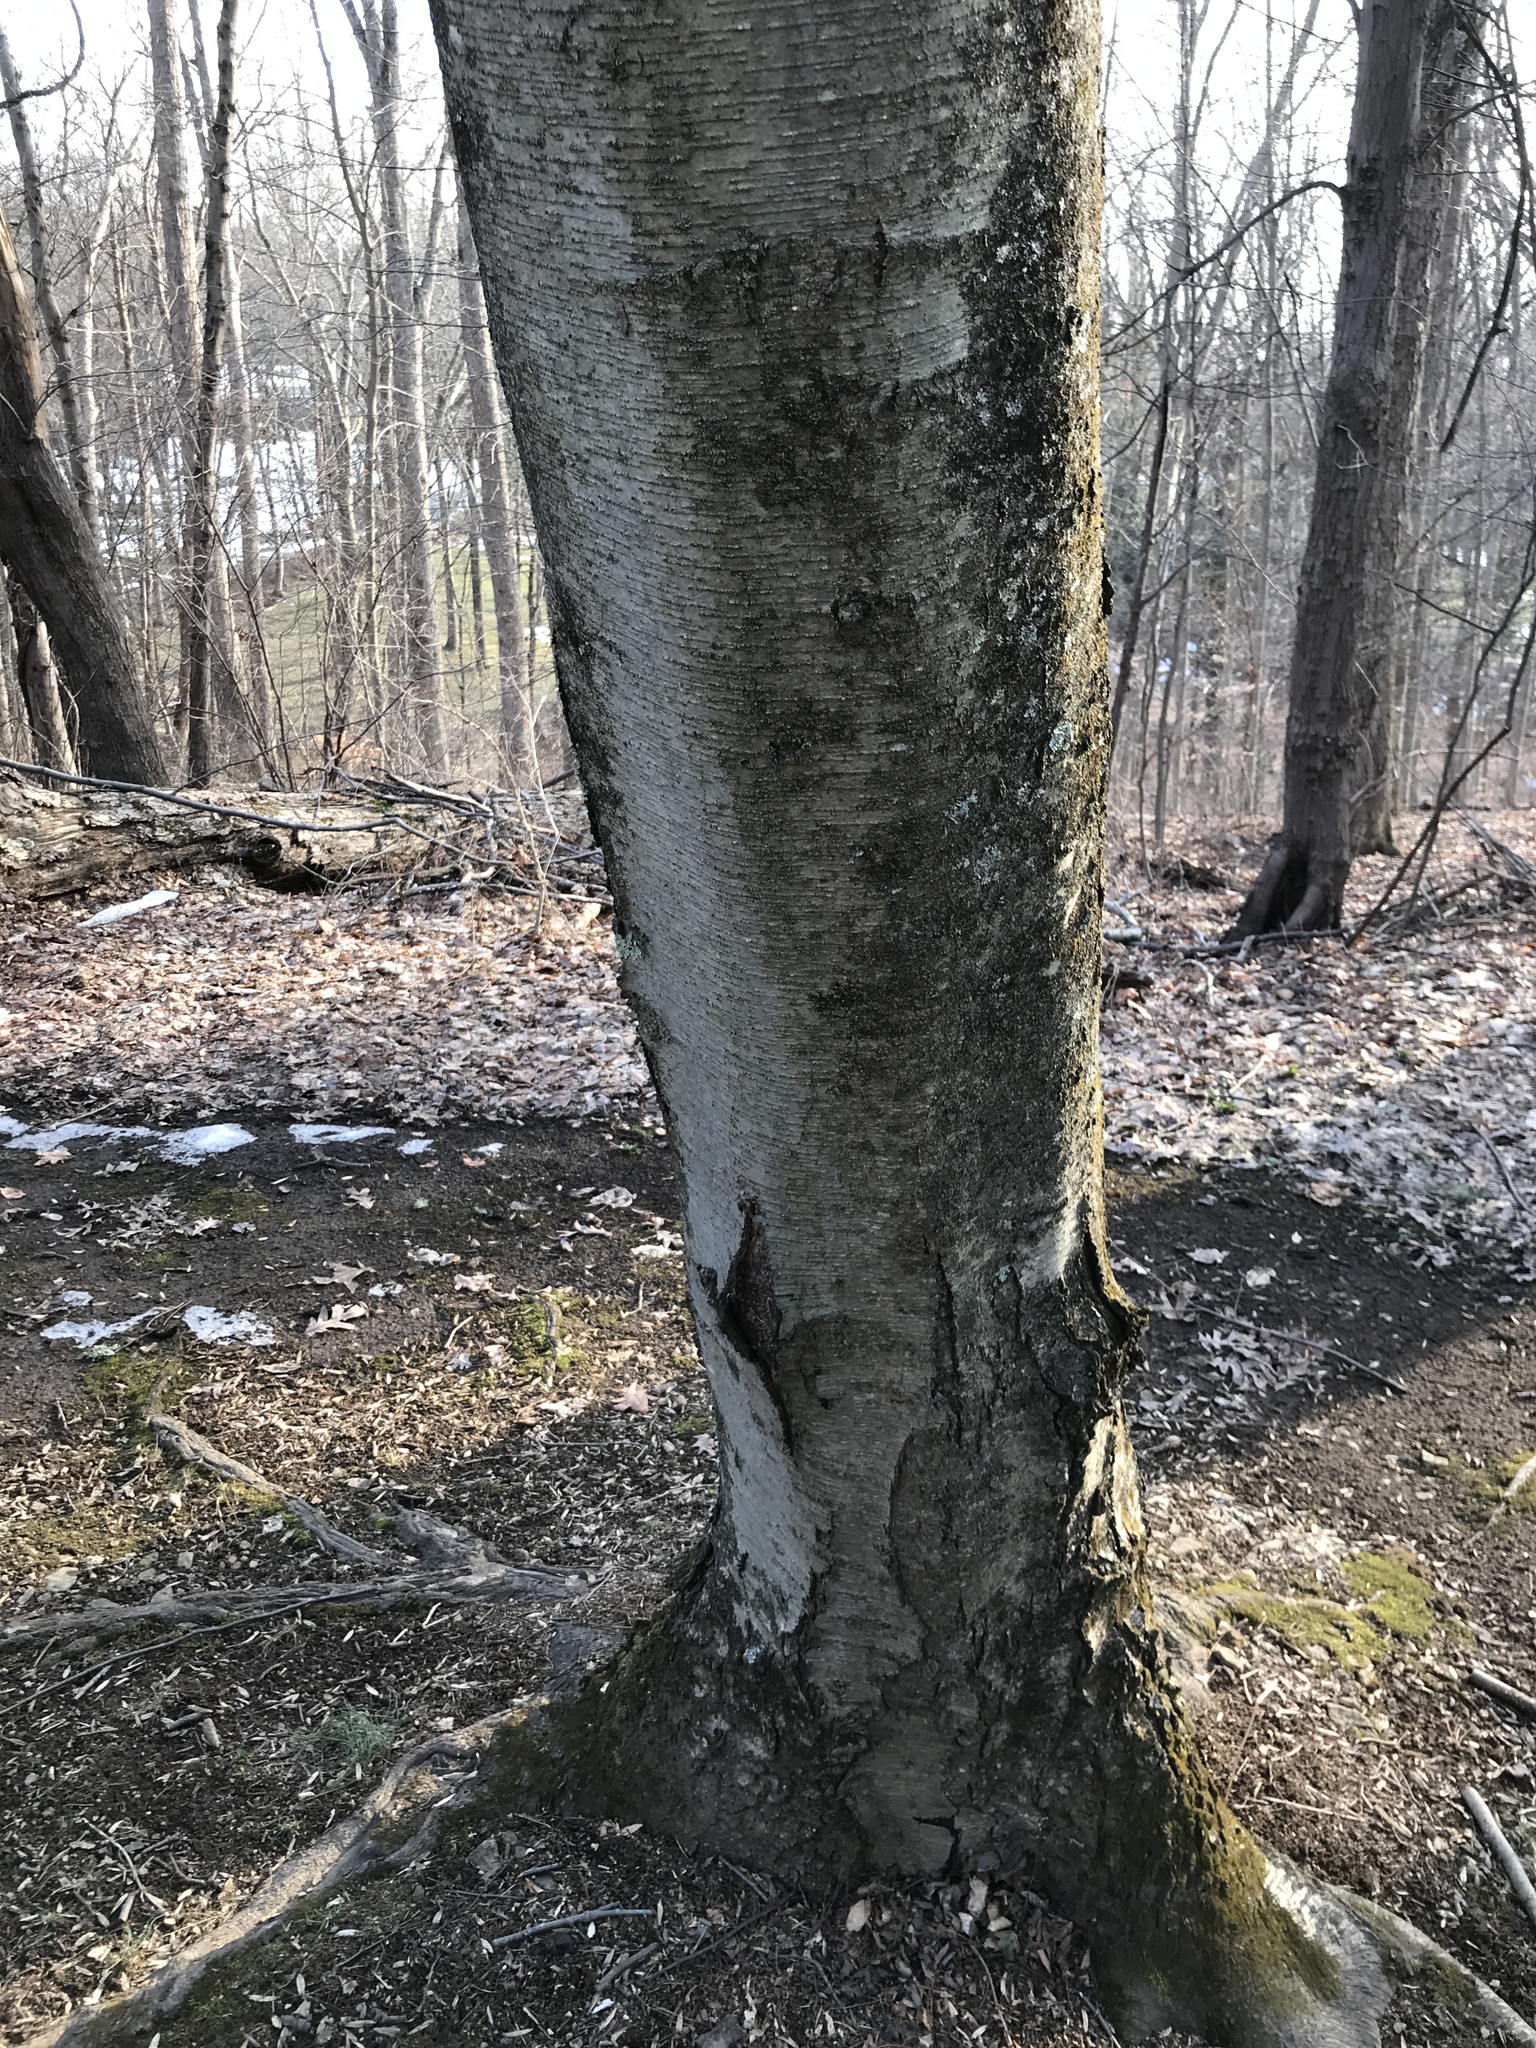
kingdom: Plantae
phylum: Tracheophyta
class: Magnoliopsida
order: Fagales
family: Betulaceae
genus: Betula
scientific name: Betula lenta
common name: Black birch
